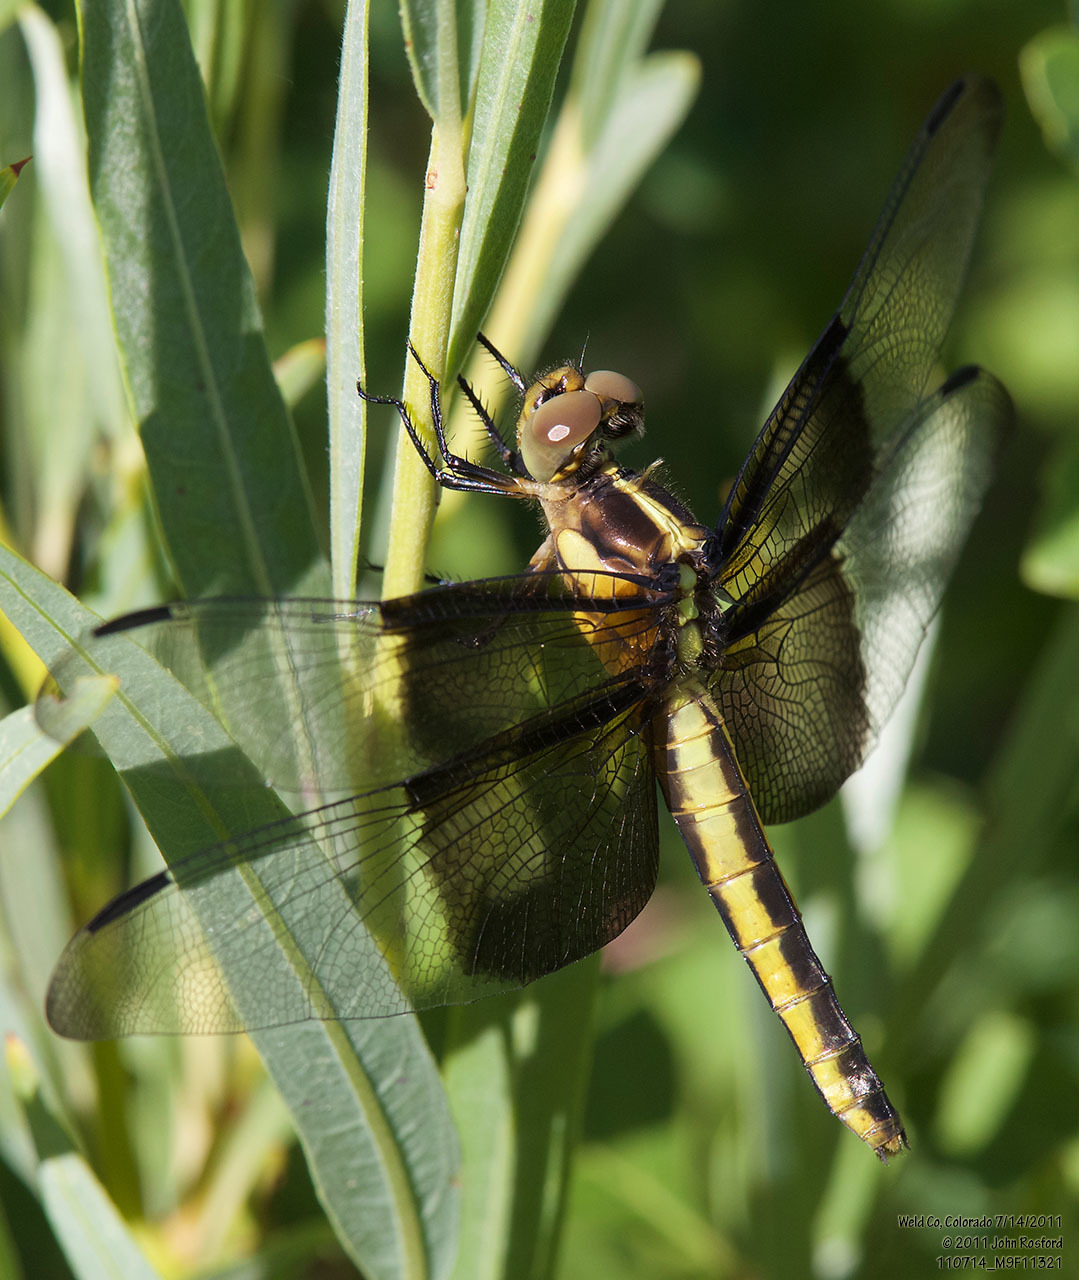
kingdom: Animalia
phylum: Arthropoda
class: Insecta
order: Odonata
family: Libellulidae
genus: Libellula
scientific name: Libellula luctuosa
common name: Widow skimmer
